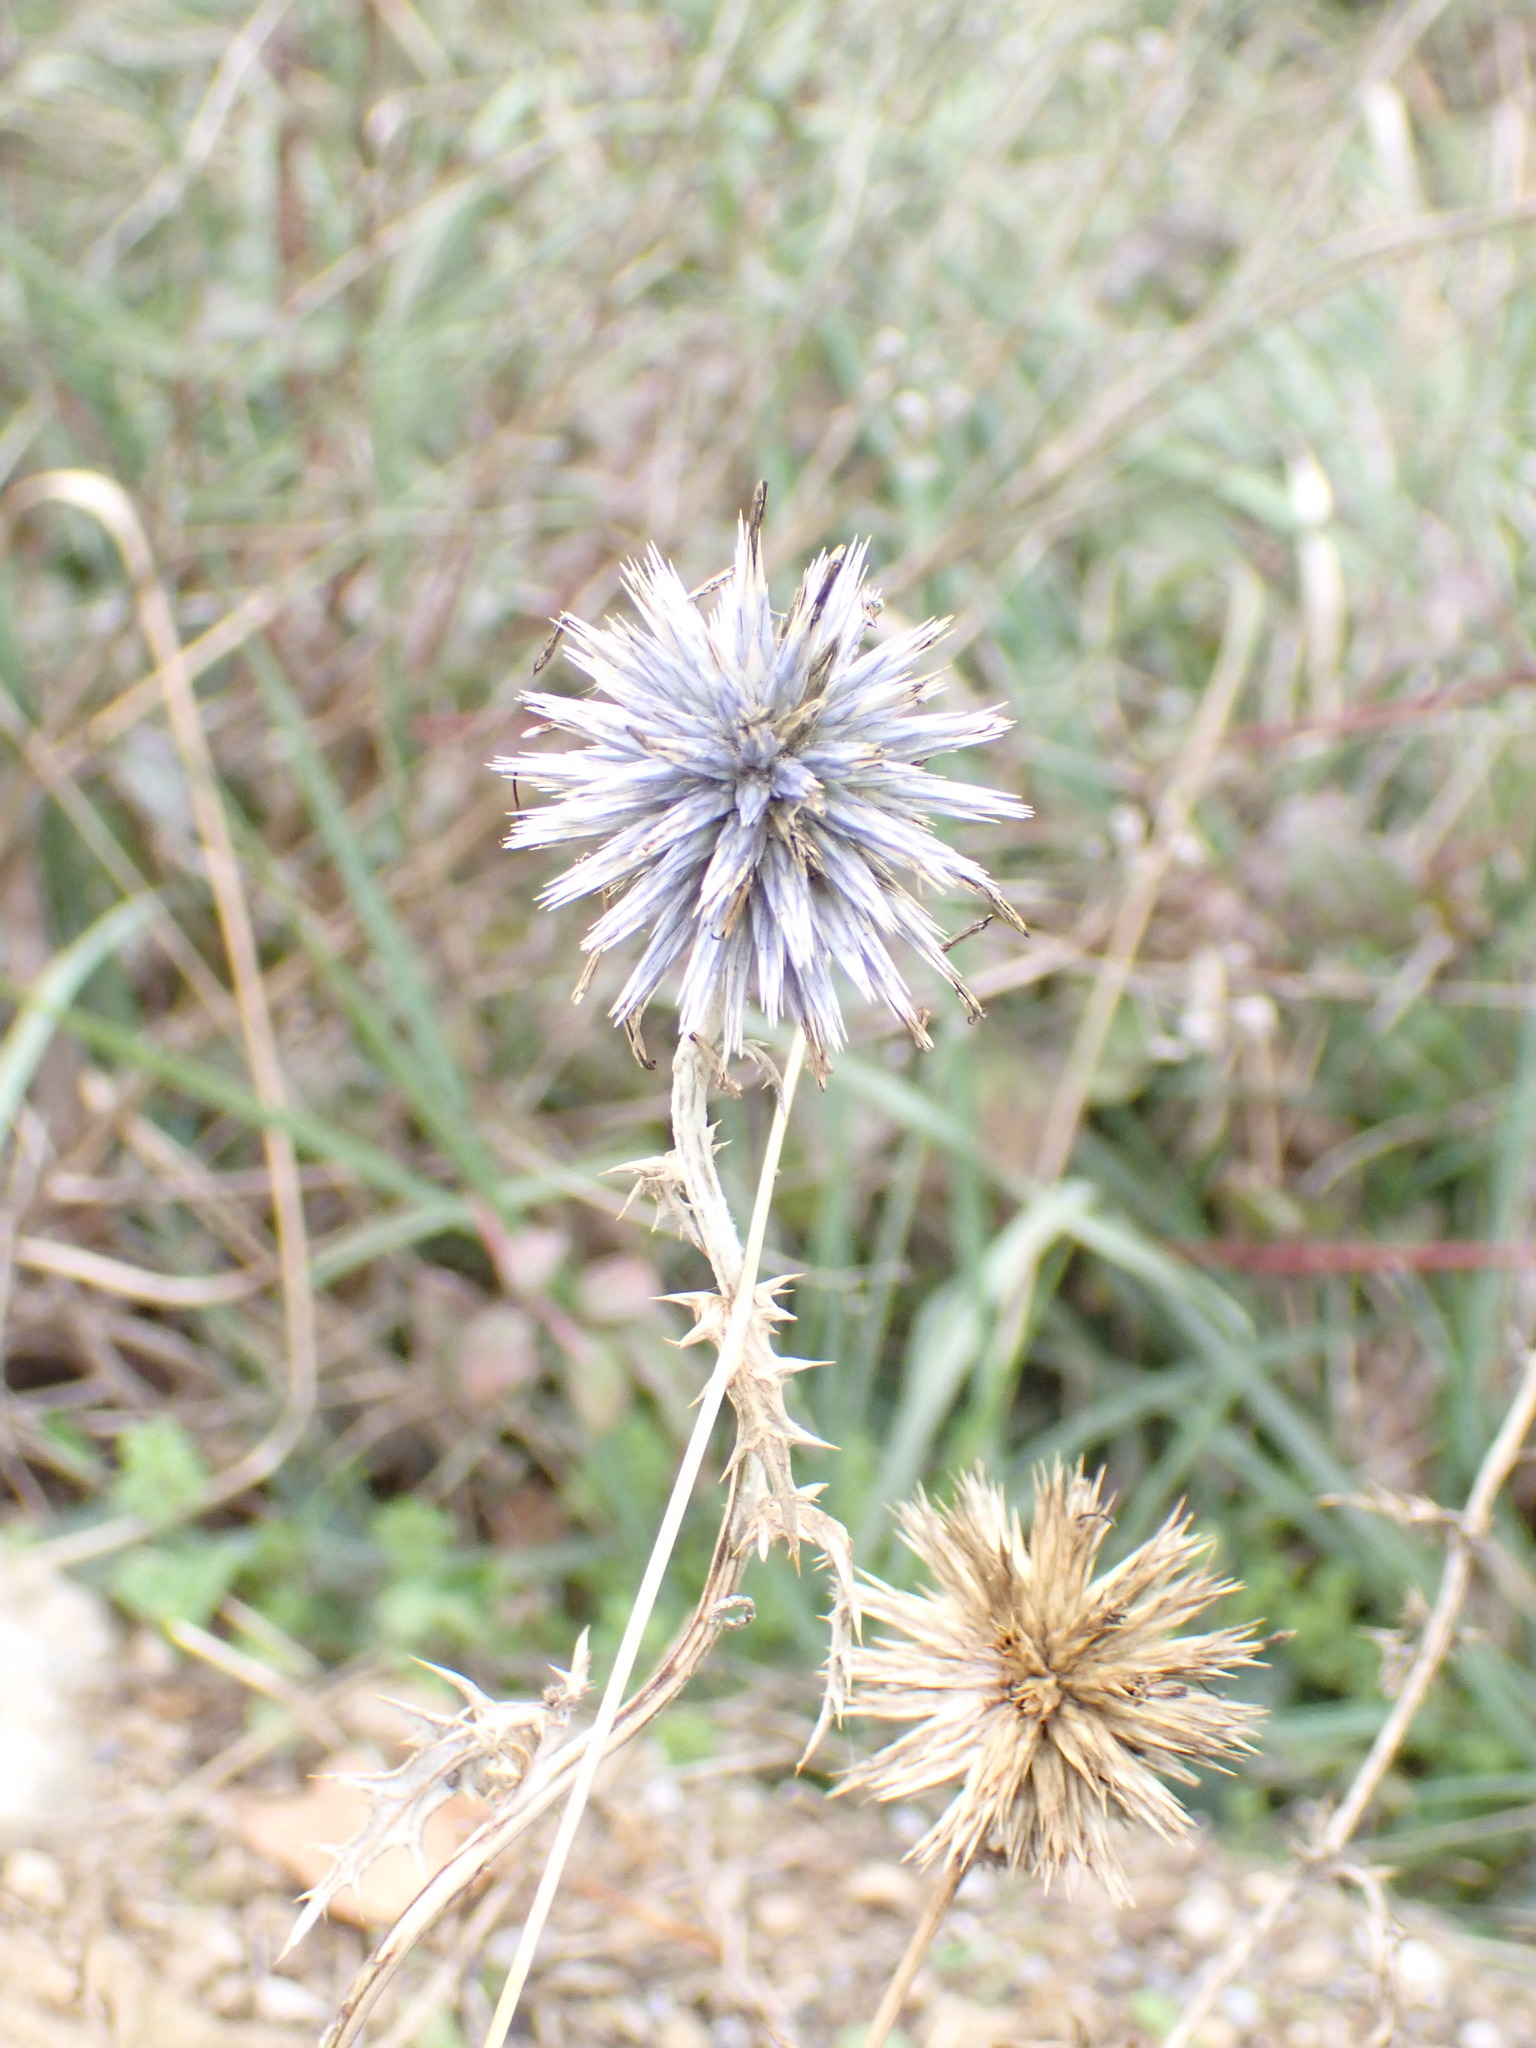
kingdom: Plantae
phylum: Tracheophyta
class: Magnoliopsida
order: Asterales
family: Asteraceae
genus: Echinops
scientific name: Echinops ritro
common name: Globe thistle
